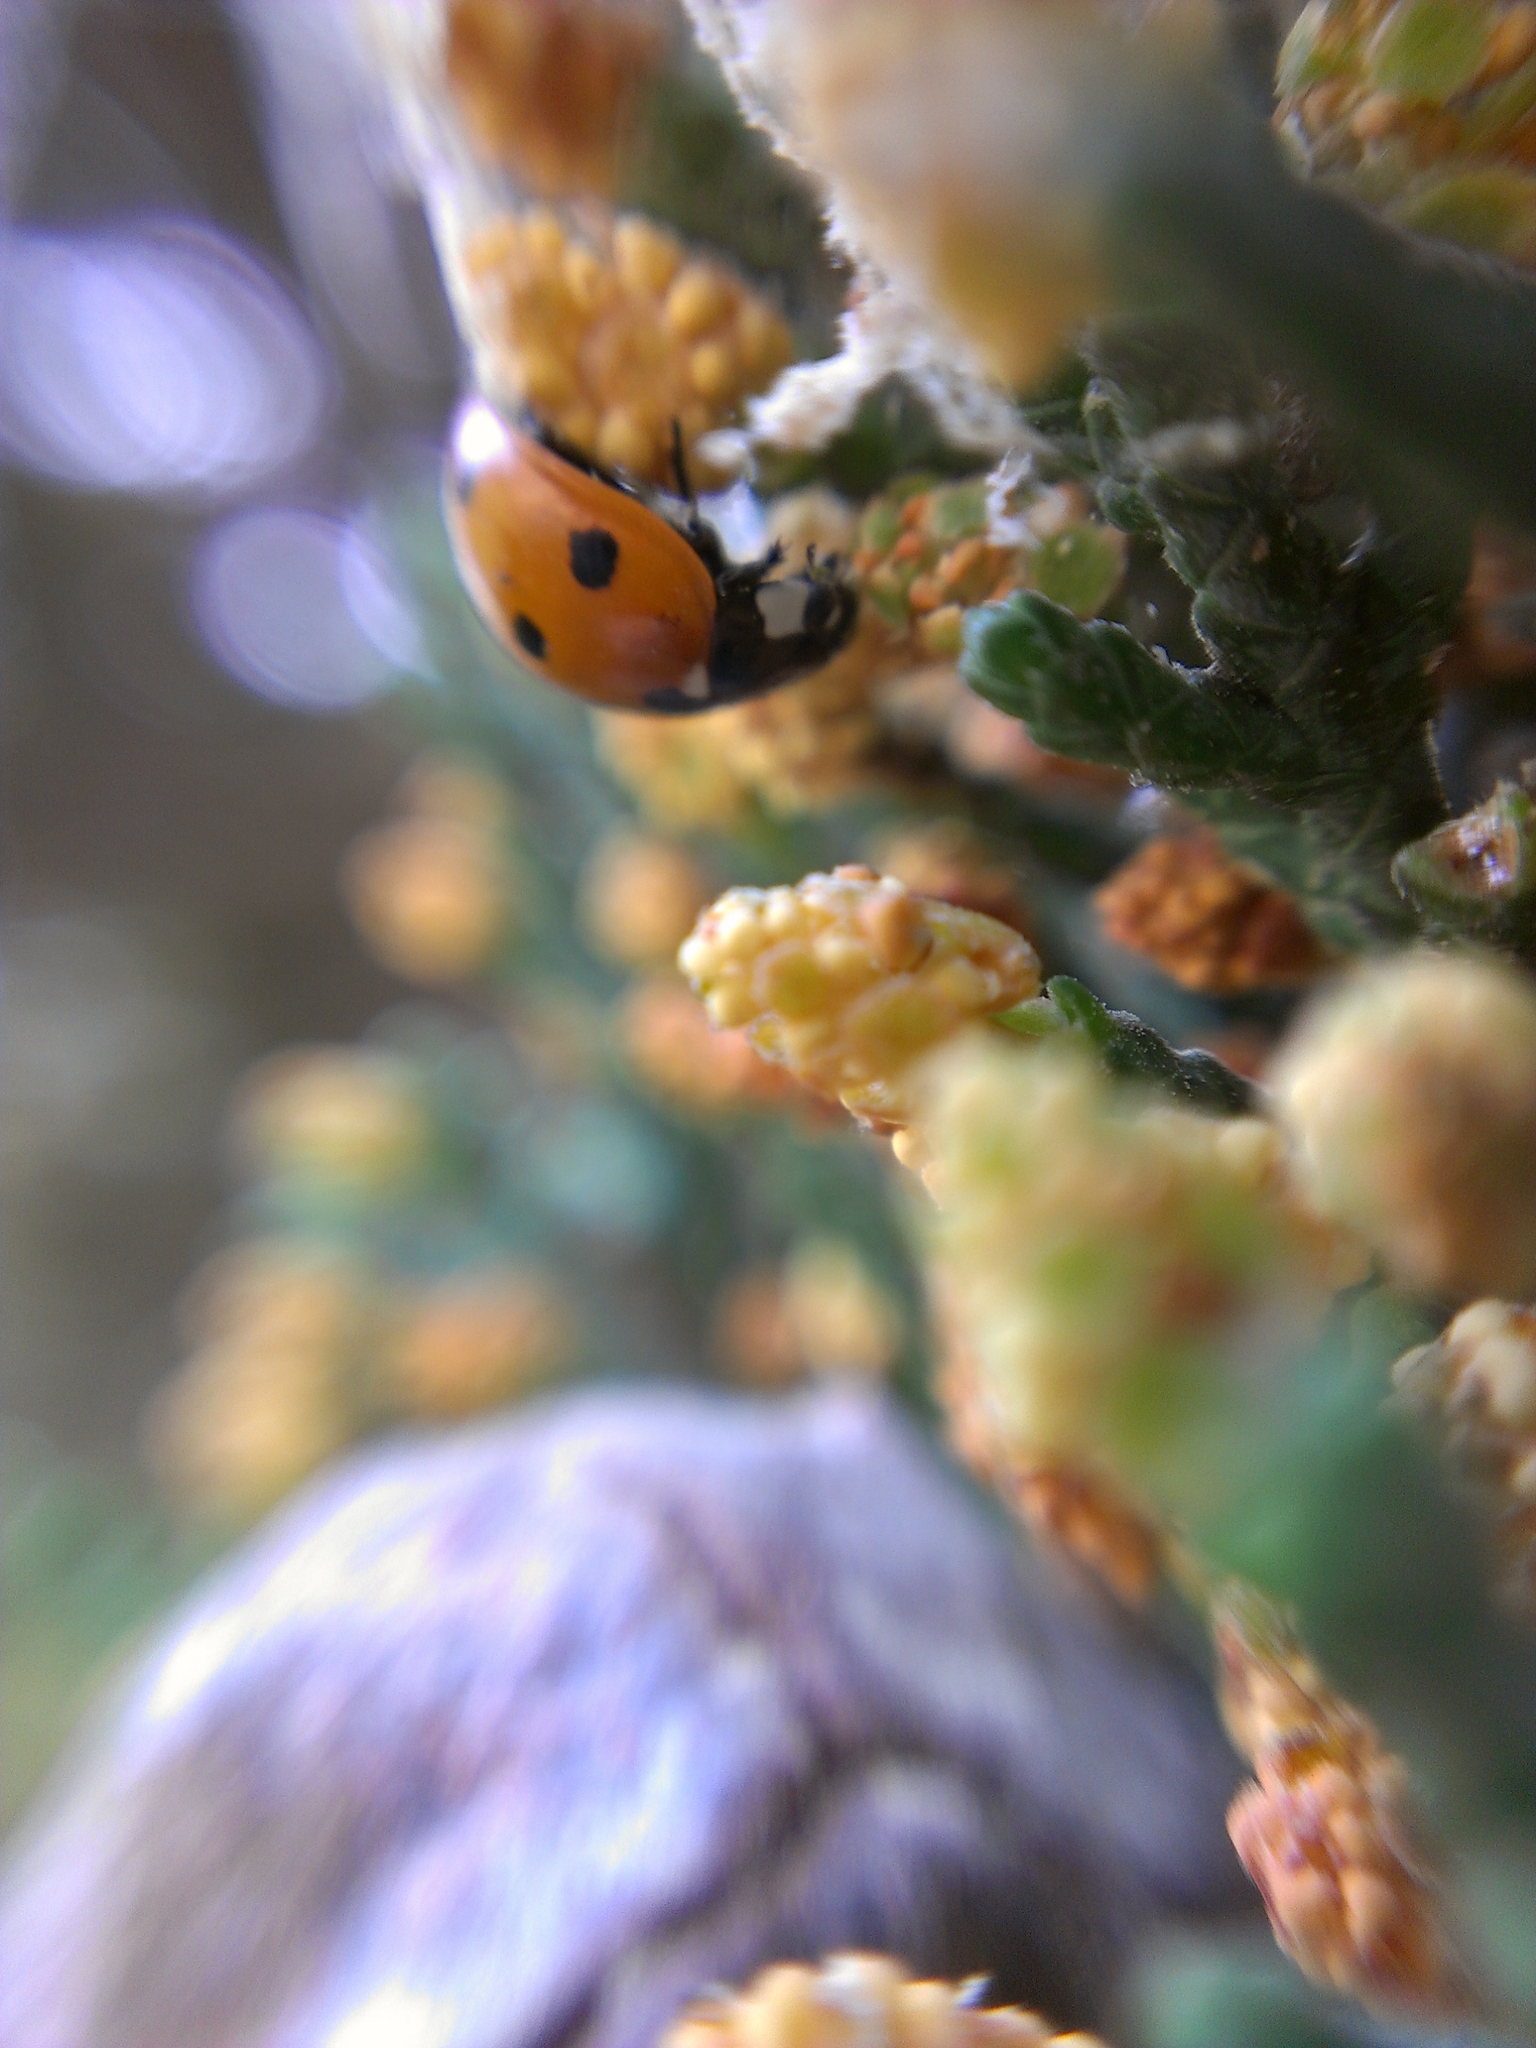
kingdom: Animalia
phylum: Arthropoda
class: Insecta
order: Coleoptera
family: Coccinellidae
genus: Coccinella
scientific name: Coccinella septempunctata
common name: Sevenspotted lady beetle
